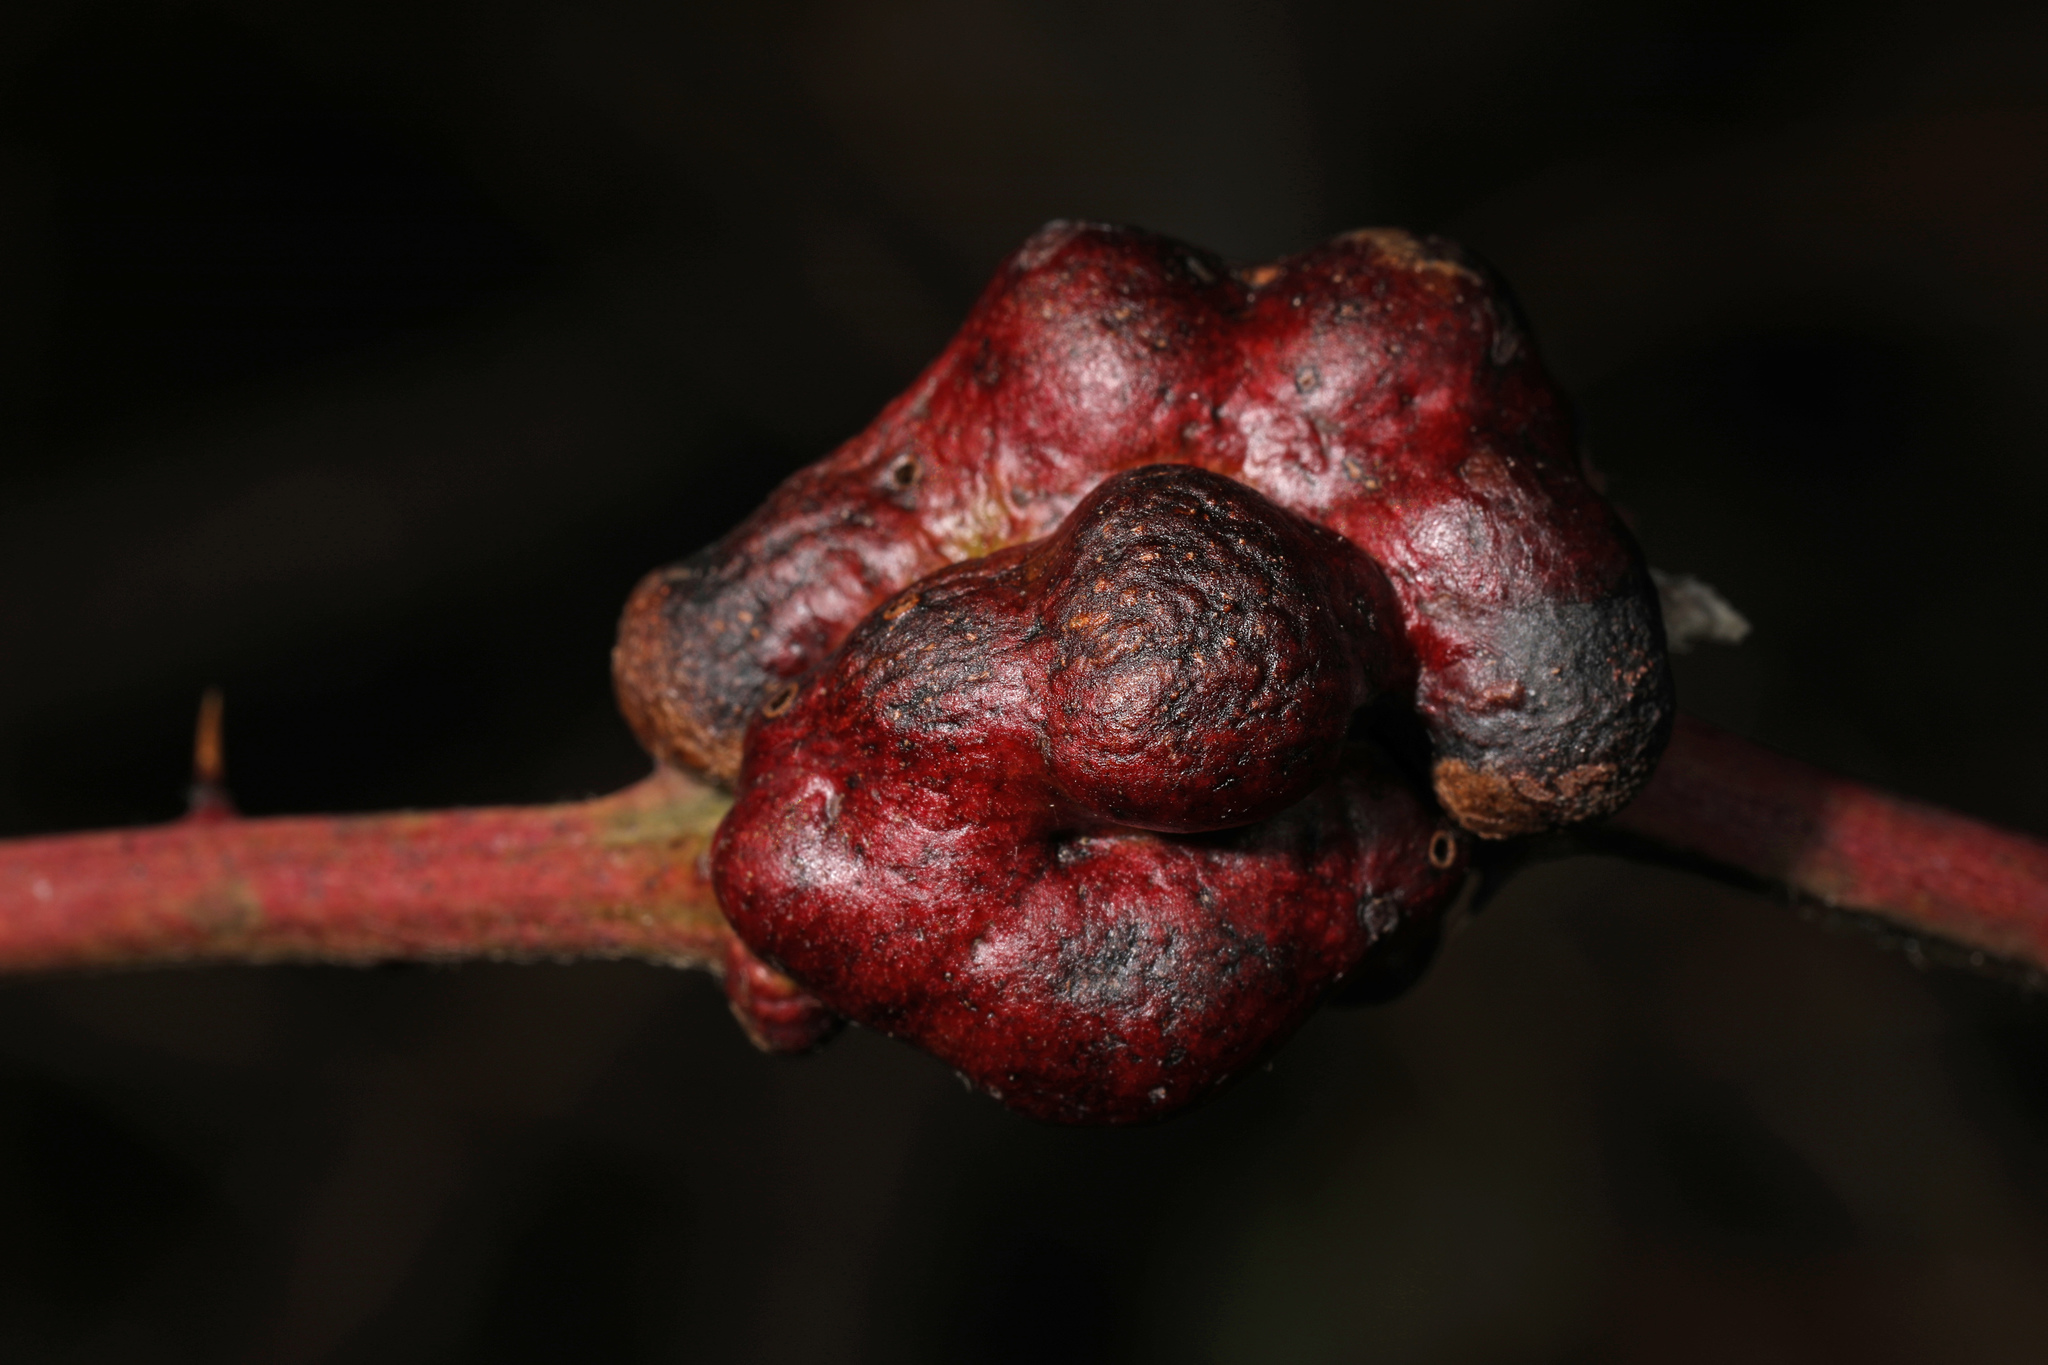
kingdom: Animalia
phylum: Arthropoda
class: Insecta
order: Hymenoptera
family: Cynipidae
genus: Diastrophus
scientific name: Diastrophus
